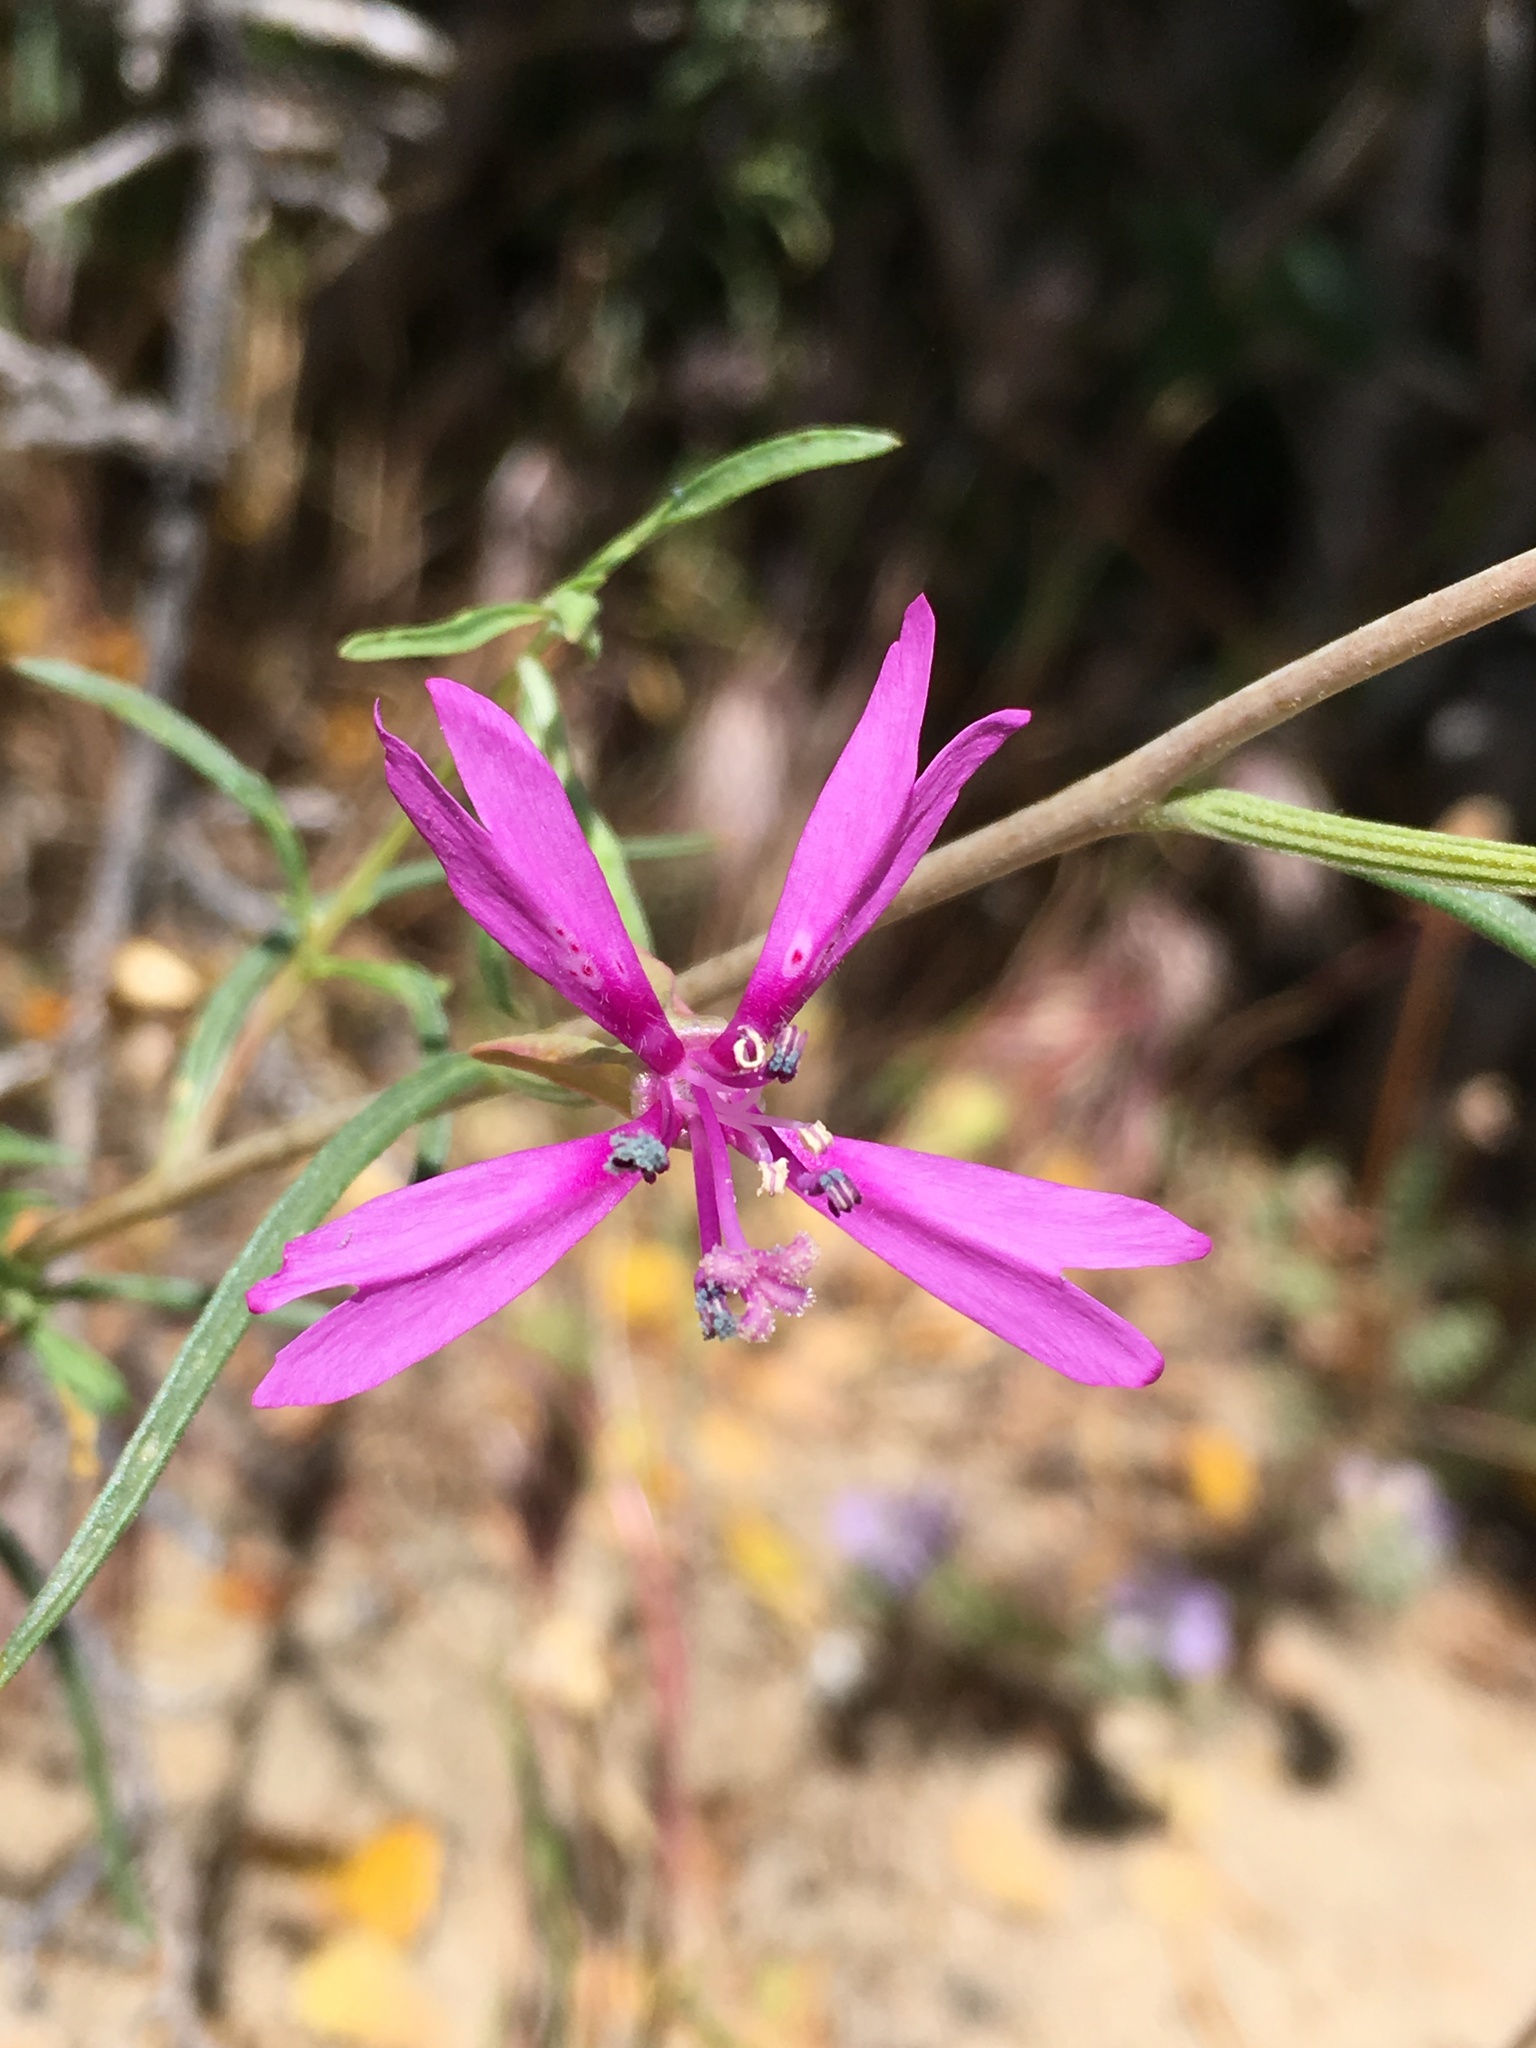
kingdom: Plantae
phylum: Tracheophyta
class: Magnoliopsida
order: Myrtales
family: Onagraceae
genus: Clarkia
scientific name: Clarkia xantiana
